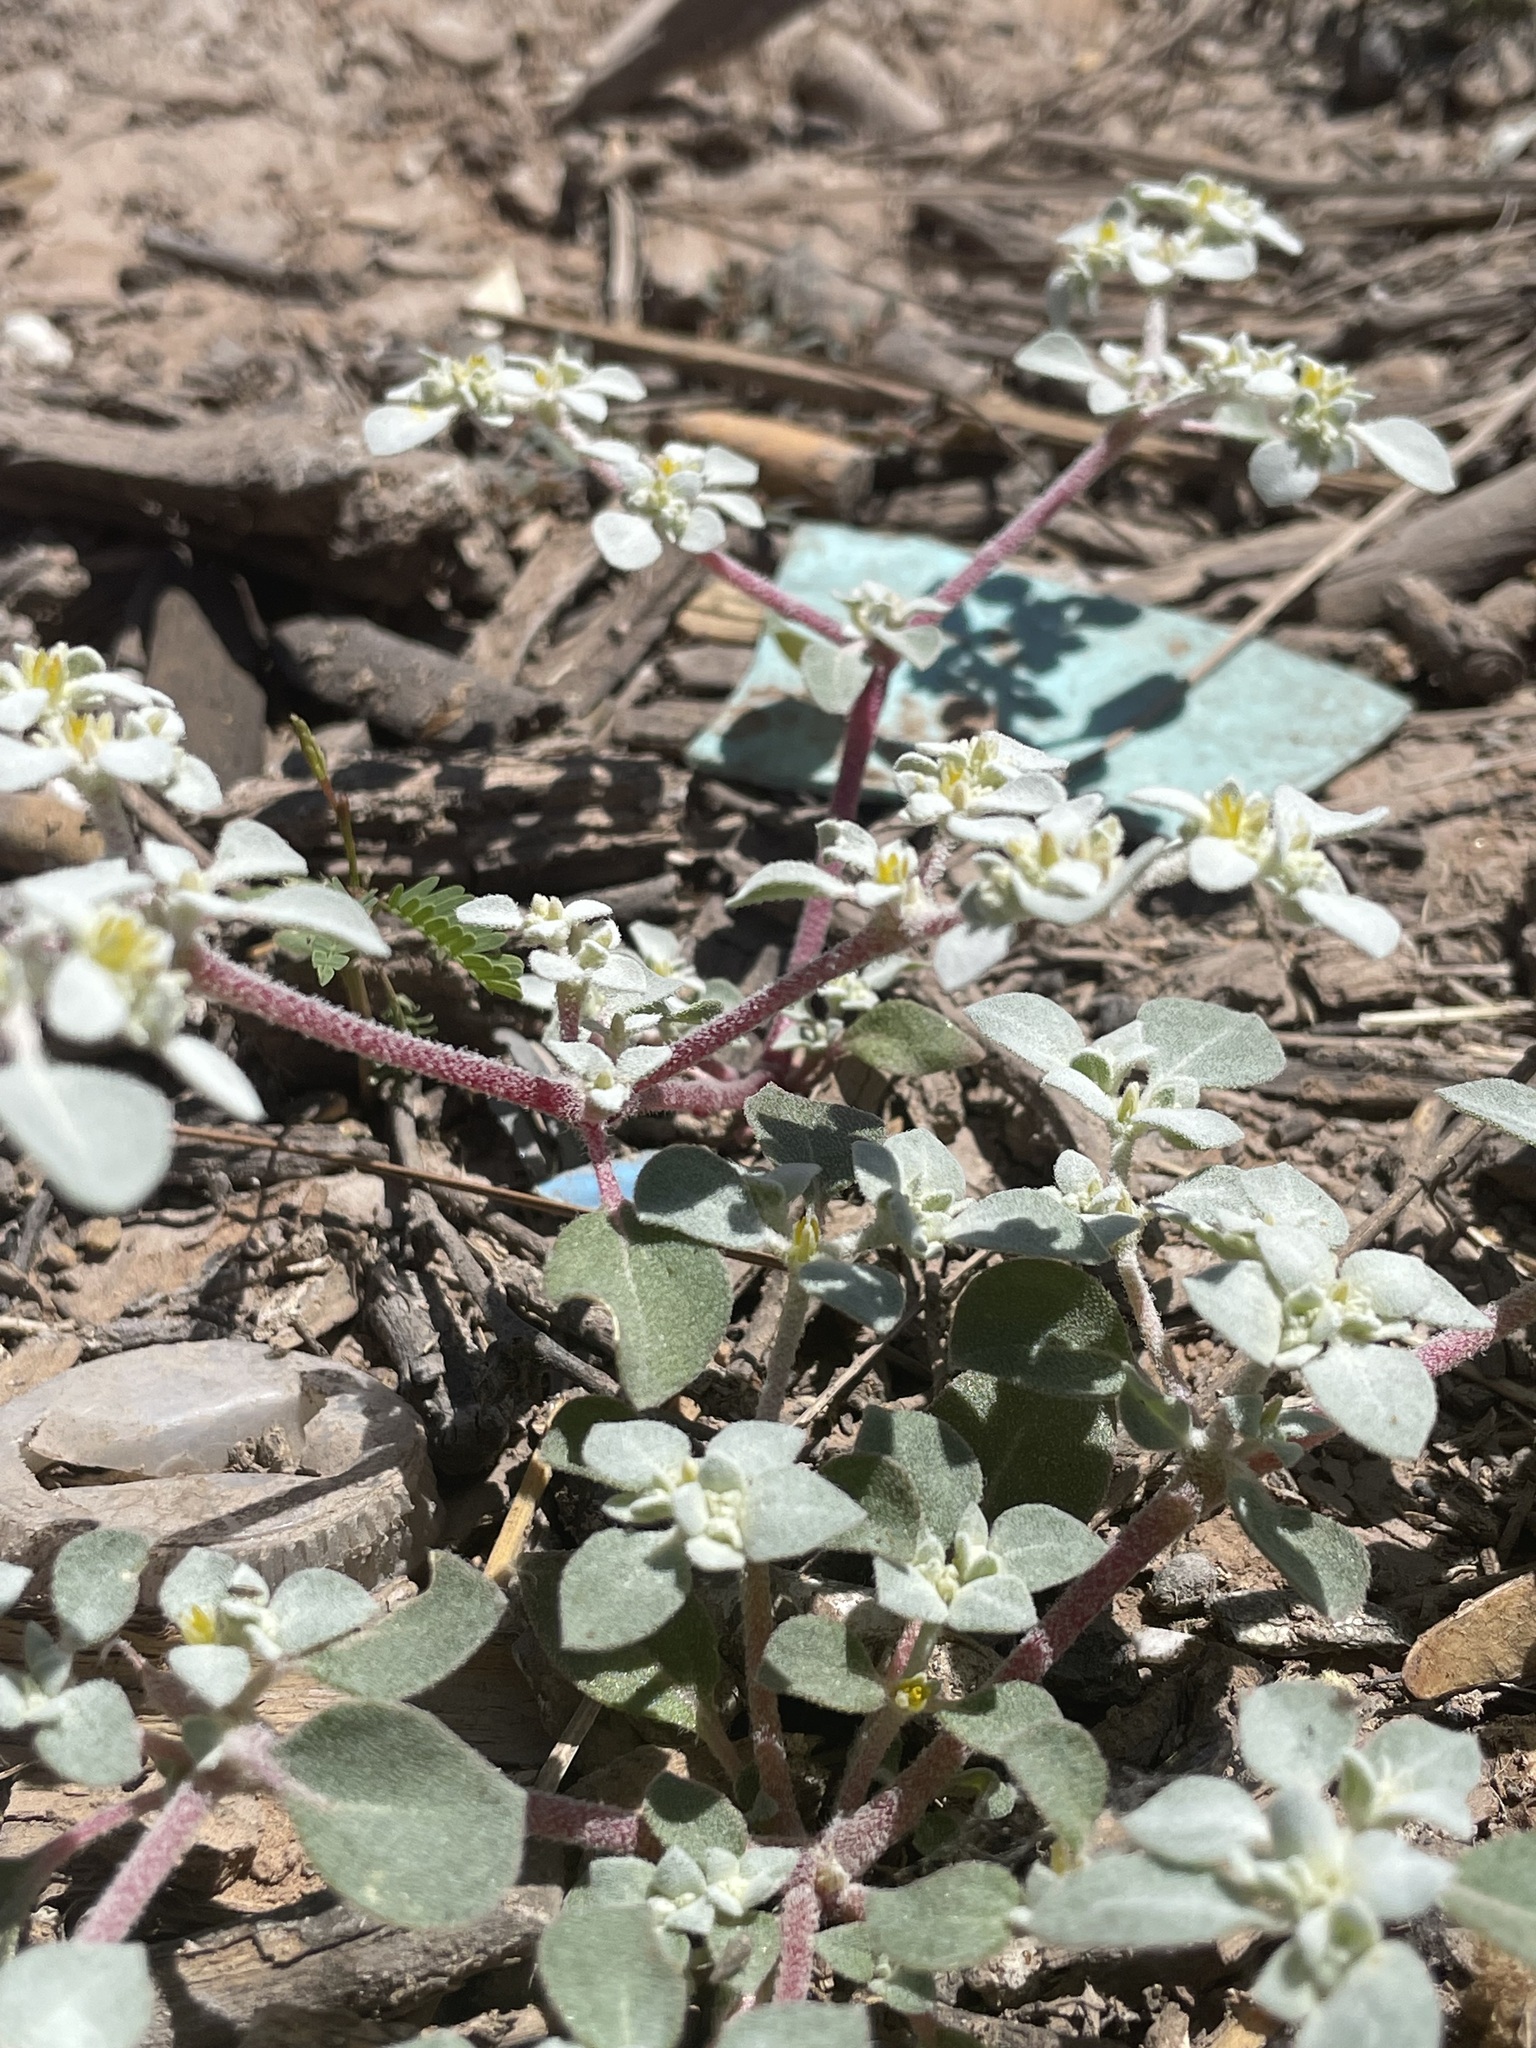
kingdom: Plantae
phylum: Tracheophyta
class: Magnoliopsida
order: Caryophyllales
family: Amaranthaceae
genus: Tidestromia
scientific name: Tidestromia lanuginosa
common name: Woolly tidestromia
